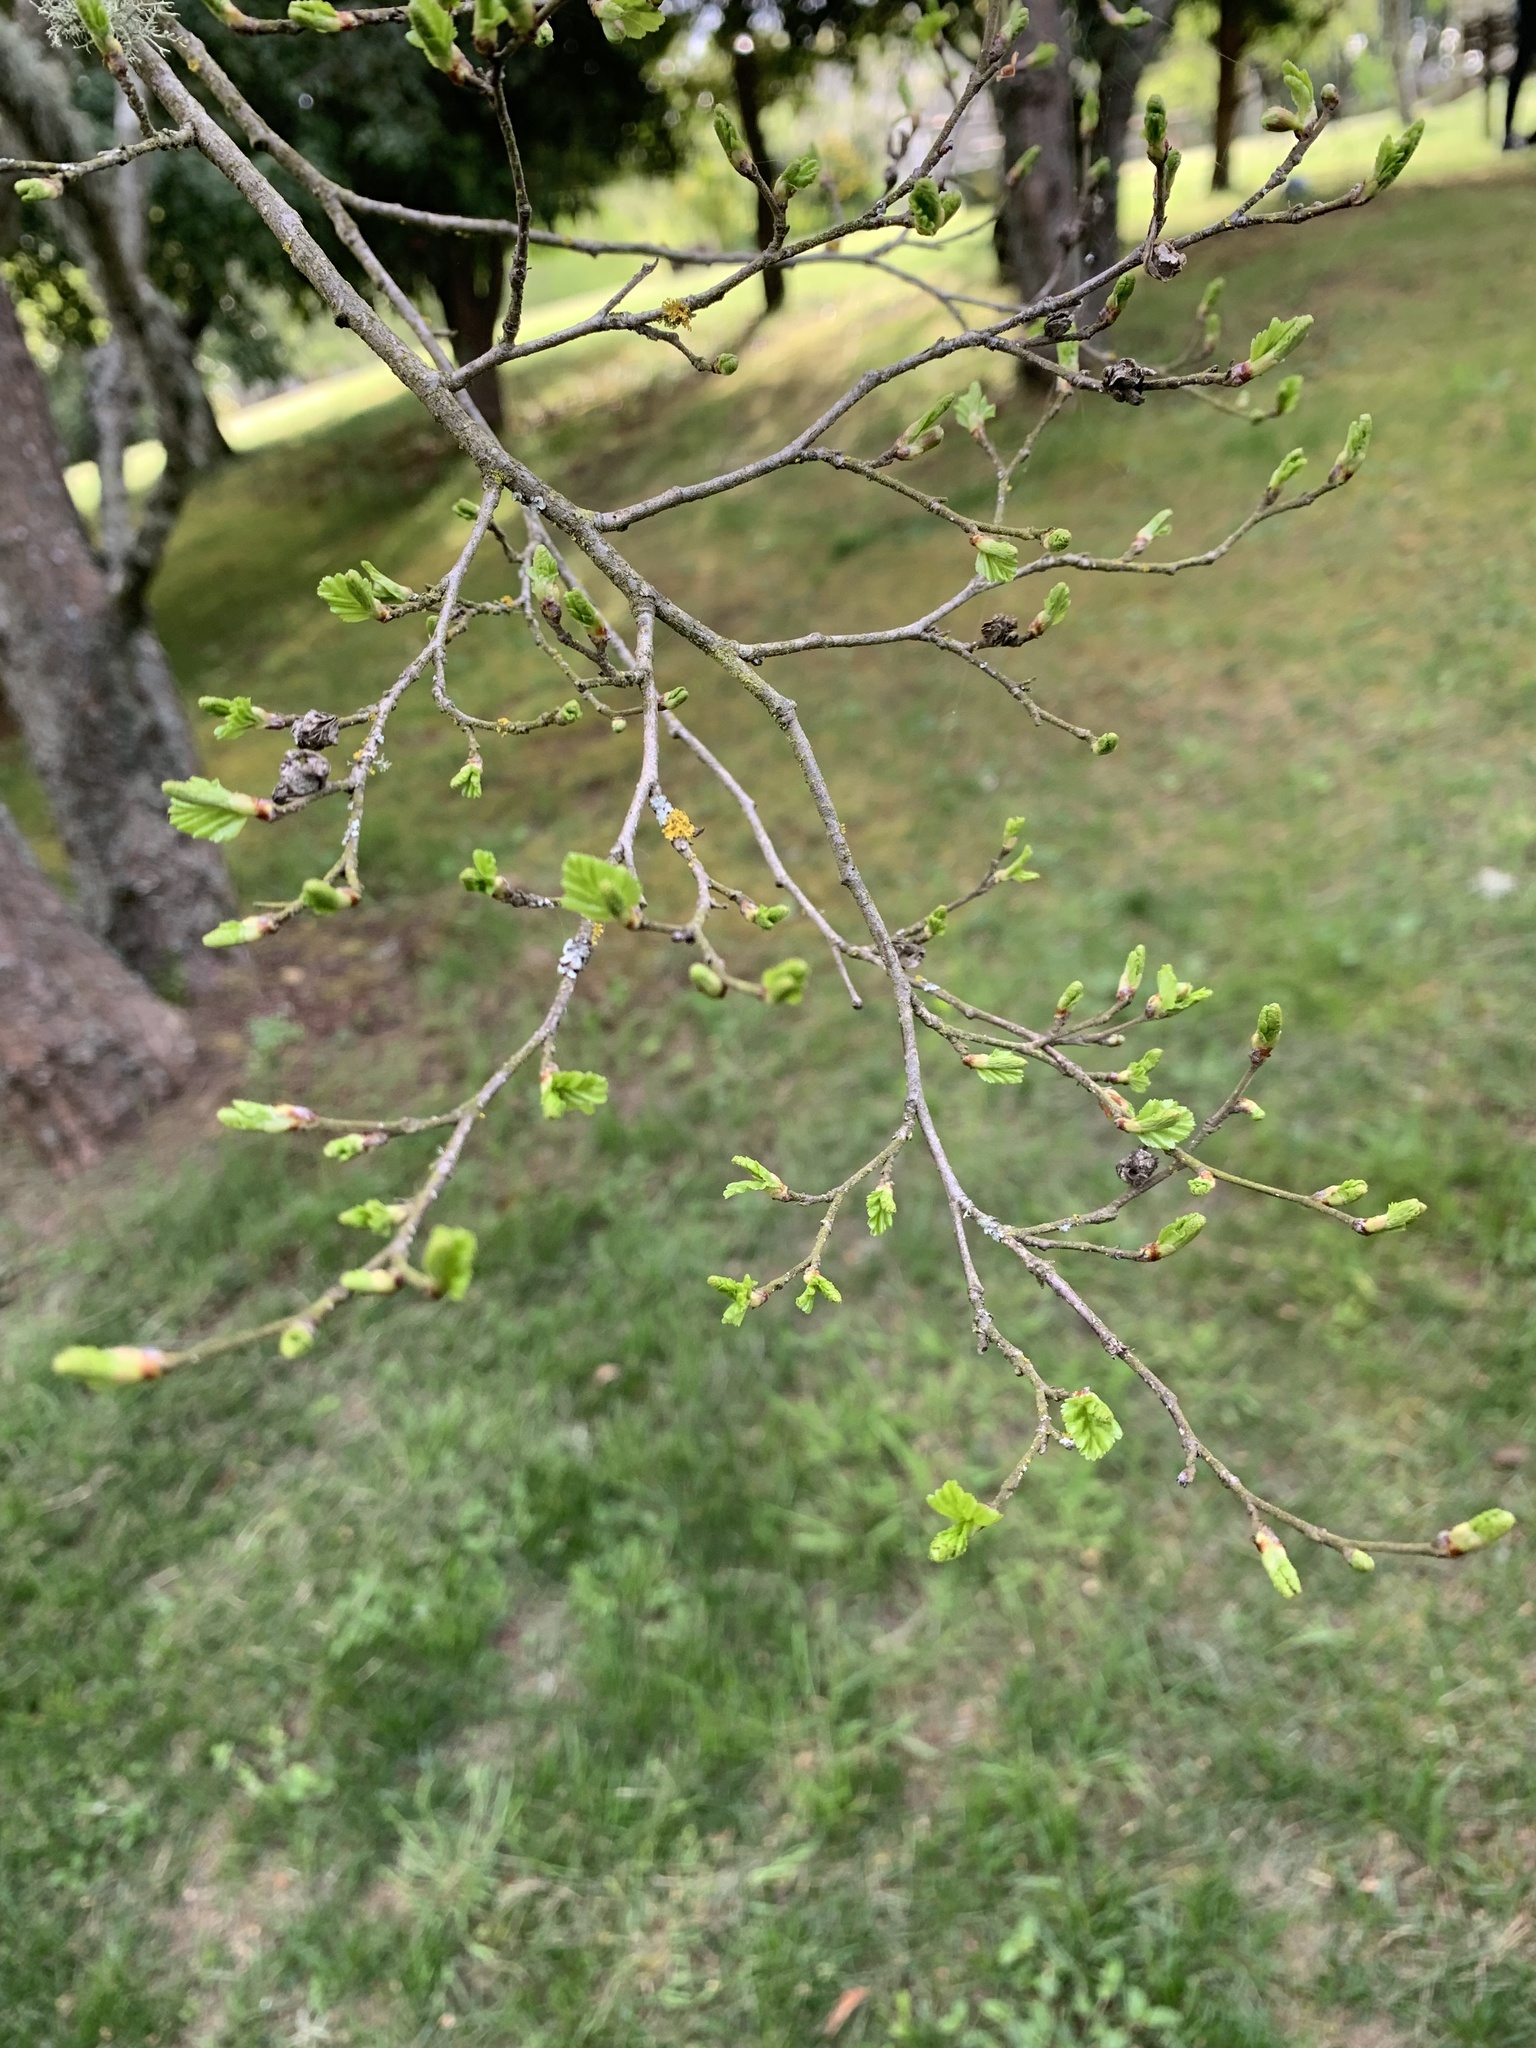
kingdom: Plantae
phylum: Tracheophyta
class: Magnoliopsida
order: Fagales
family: Nothofagaceae
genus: Nothofagus
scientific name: Nothofagus antarctica
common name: Antarctic beech
